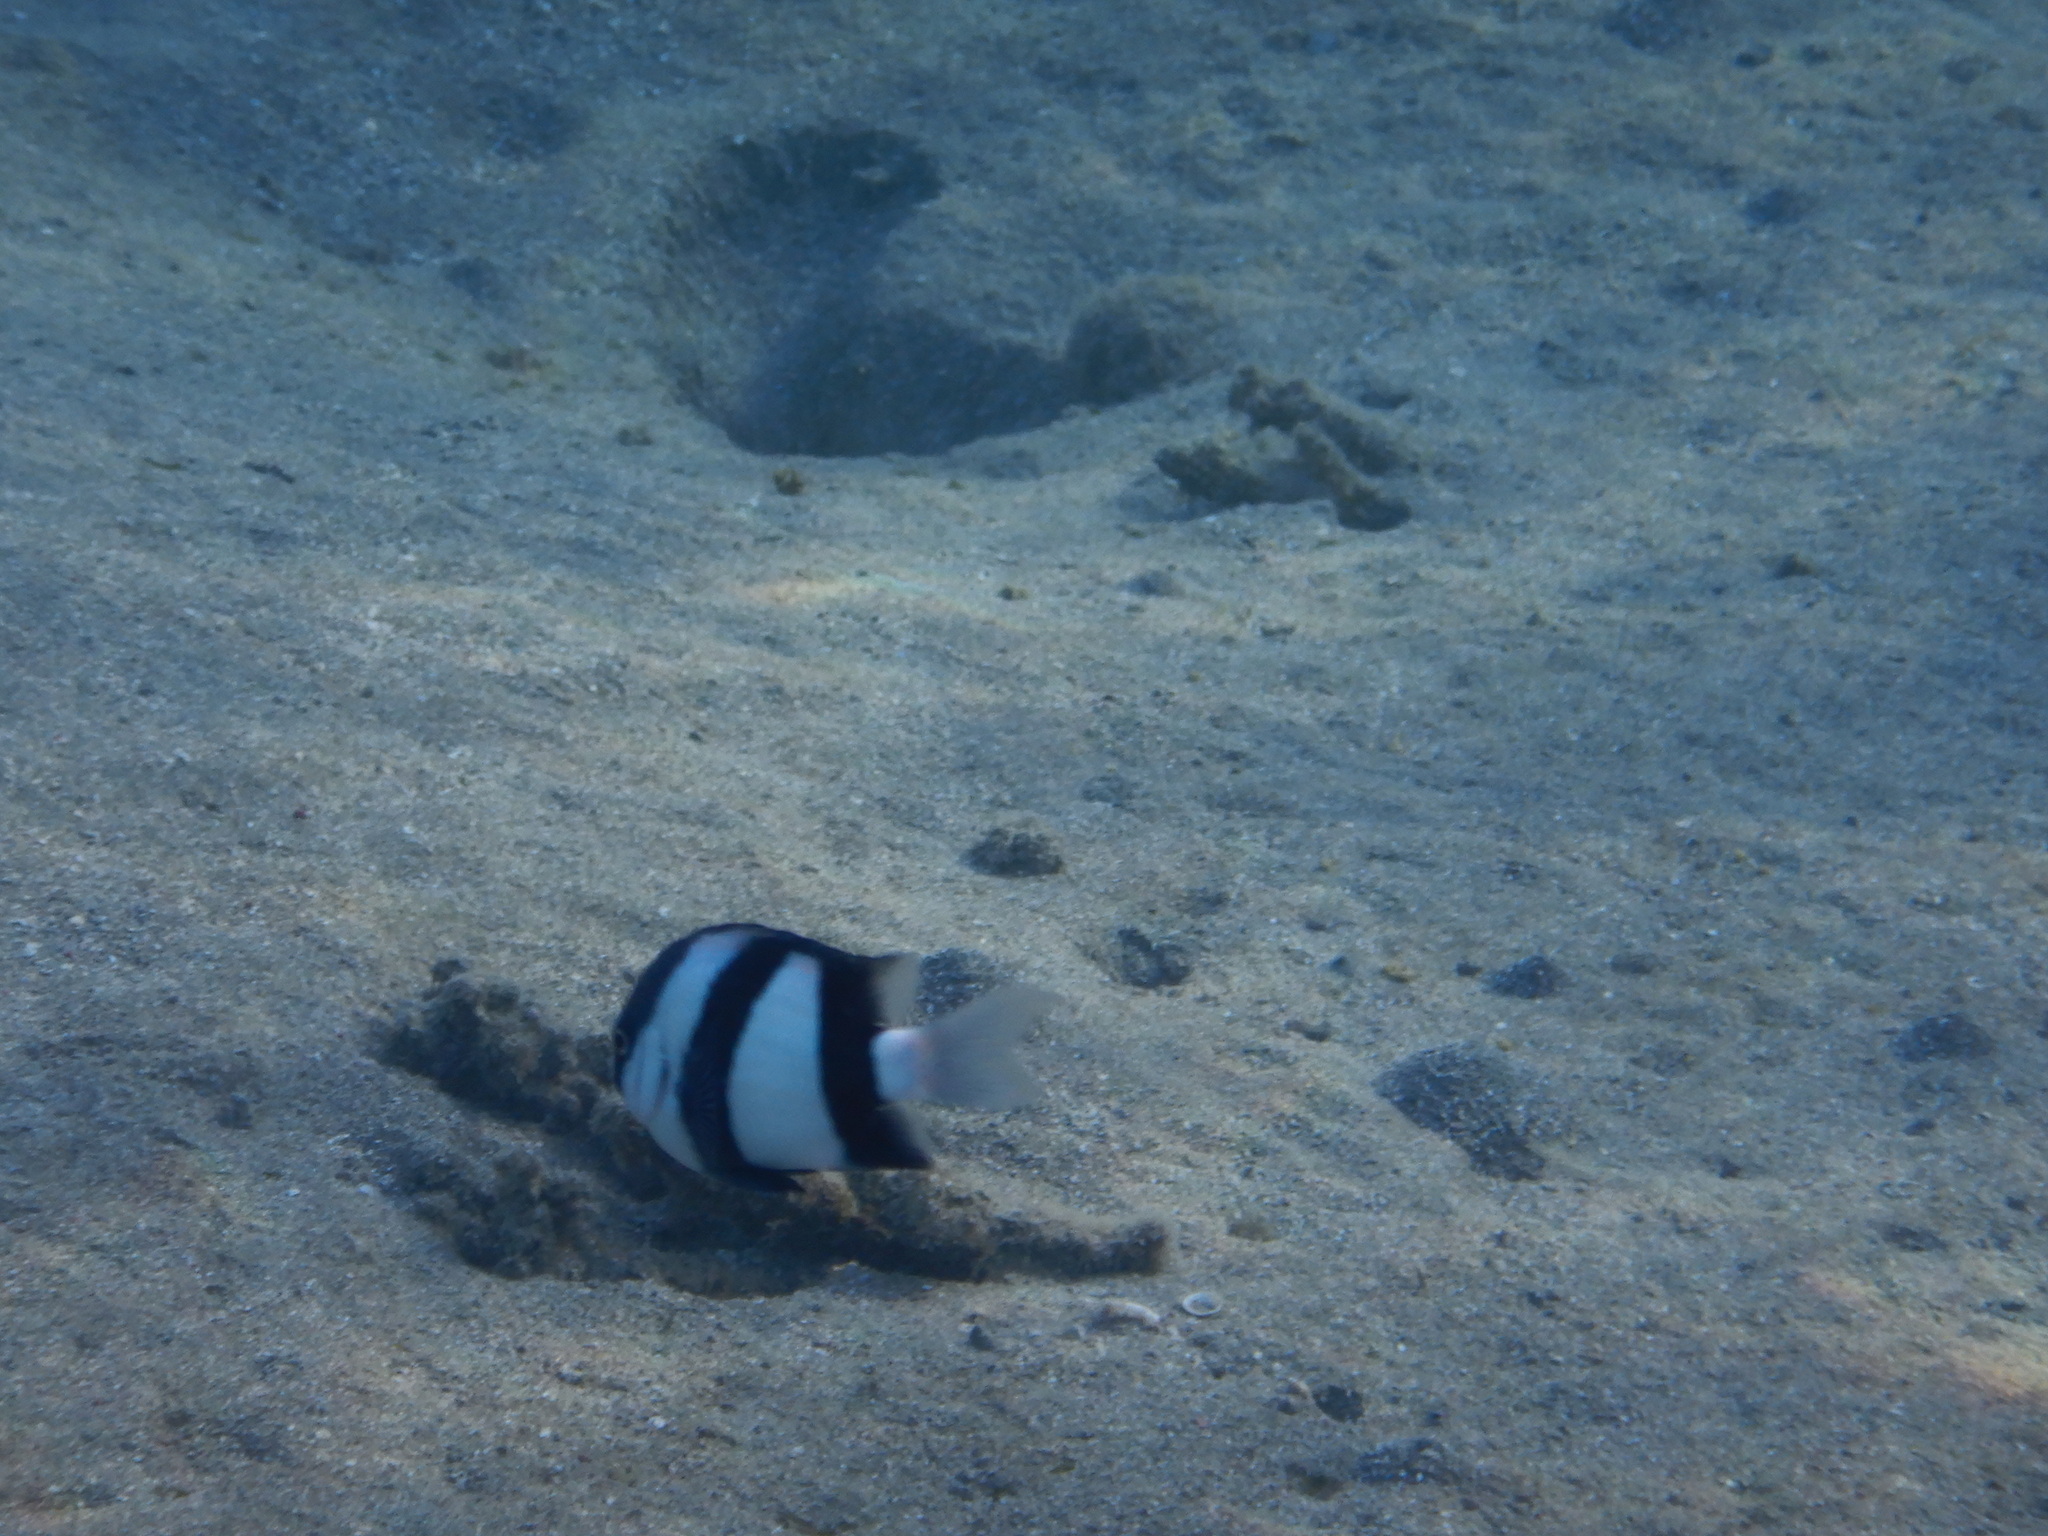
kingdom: Animalia
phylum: Chordata
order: Perciformes
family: Pomacentridae
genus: Dascyllus
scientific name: Dascyllus abudafur
